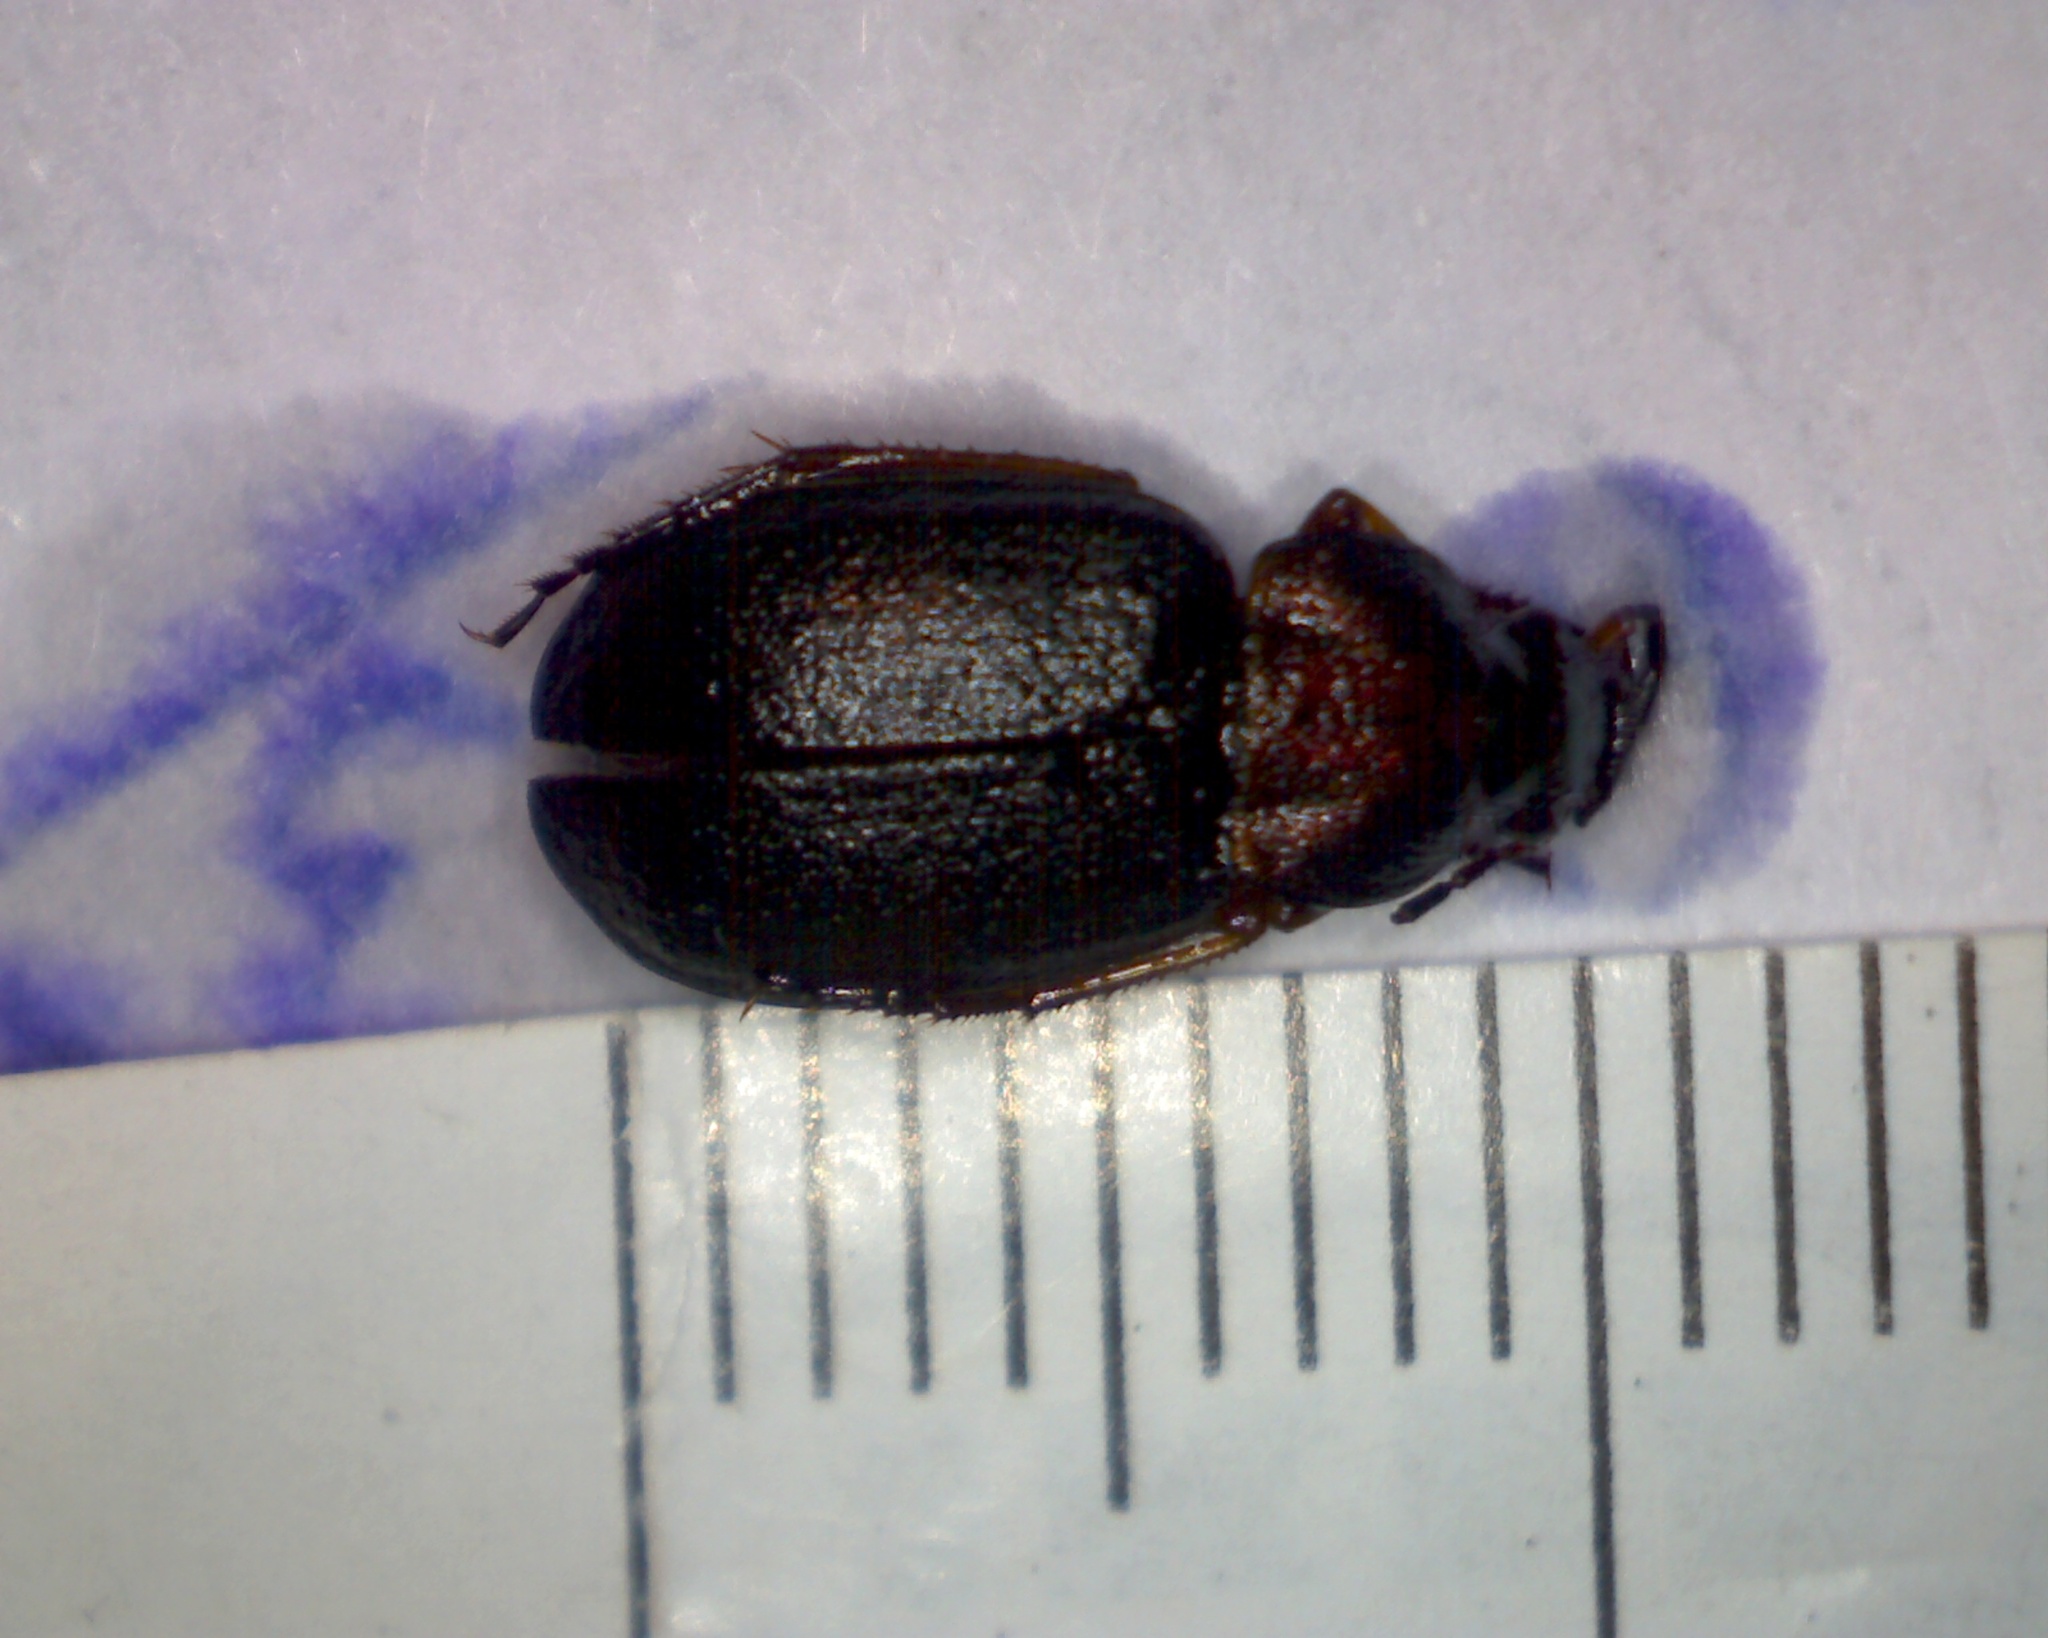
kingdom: Animalia
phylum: Arthropoda
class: Insecta
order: Coleoptera
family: Carabidae
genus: Chlaenius
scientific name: Chlaenius nigricornis
